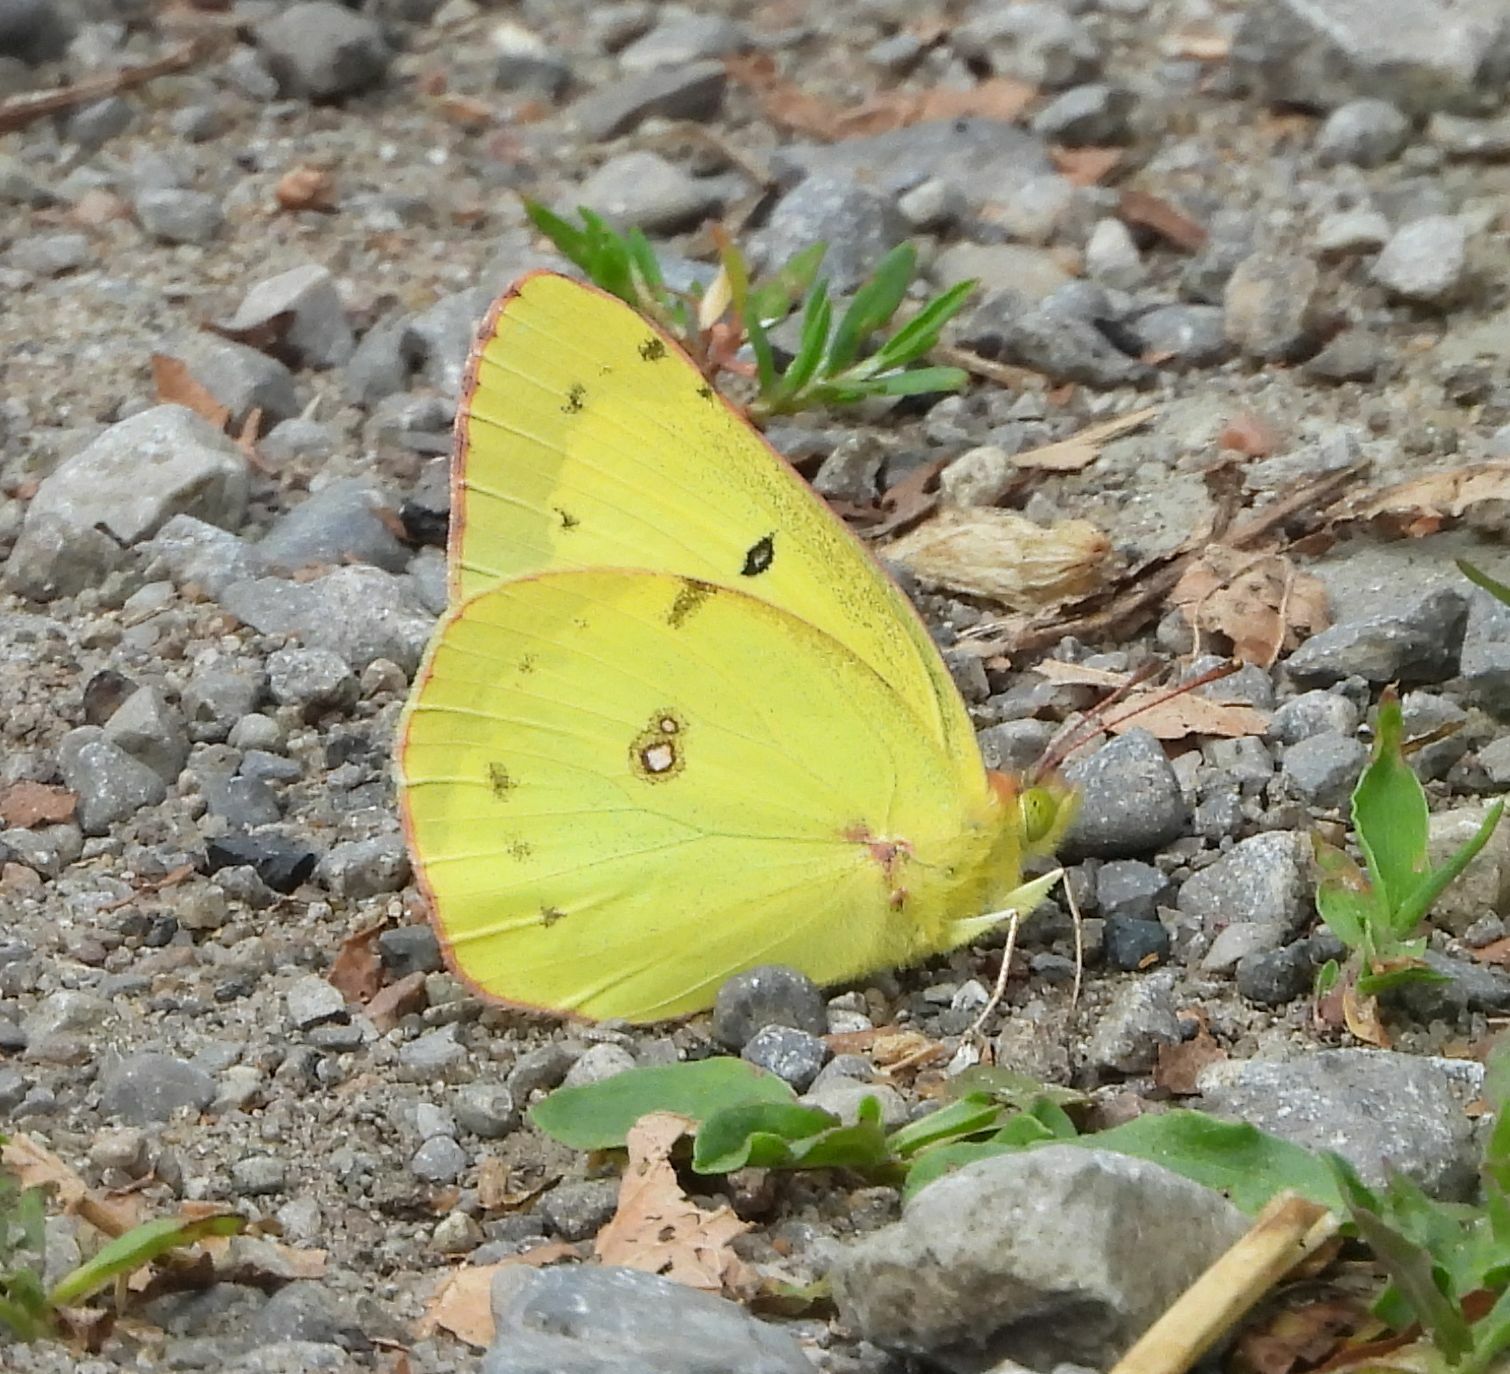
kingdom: Animalia
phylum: Arthropoda
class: Insecta
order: Lepidoptera
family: Pieridae
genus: Colias
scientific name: Colias philodice
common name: Clouded sulphur
